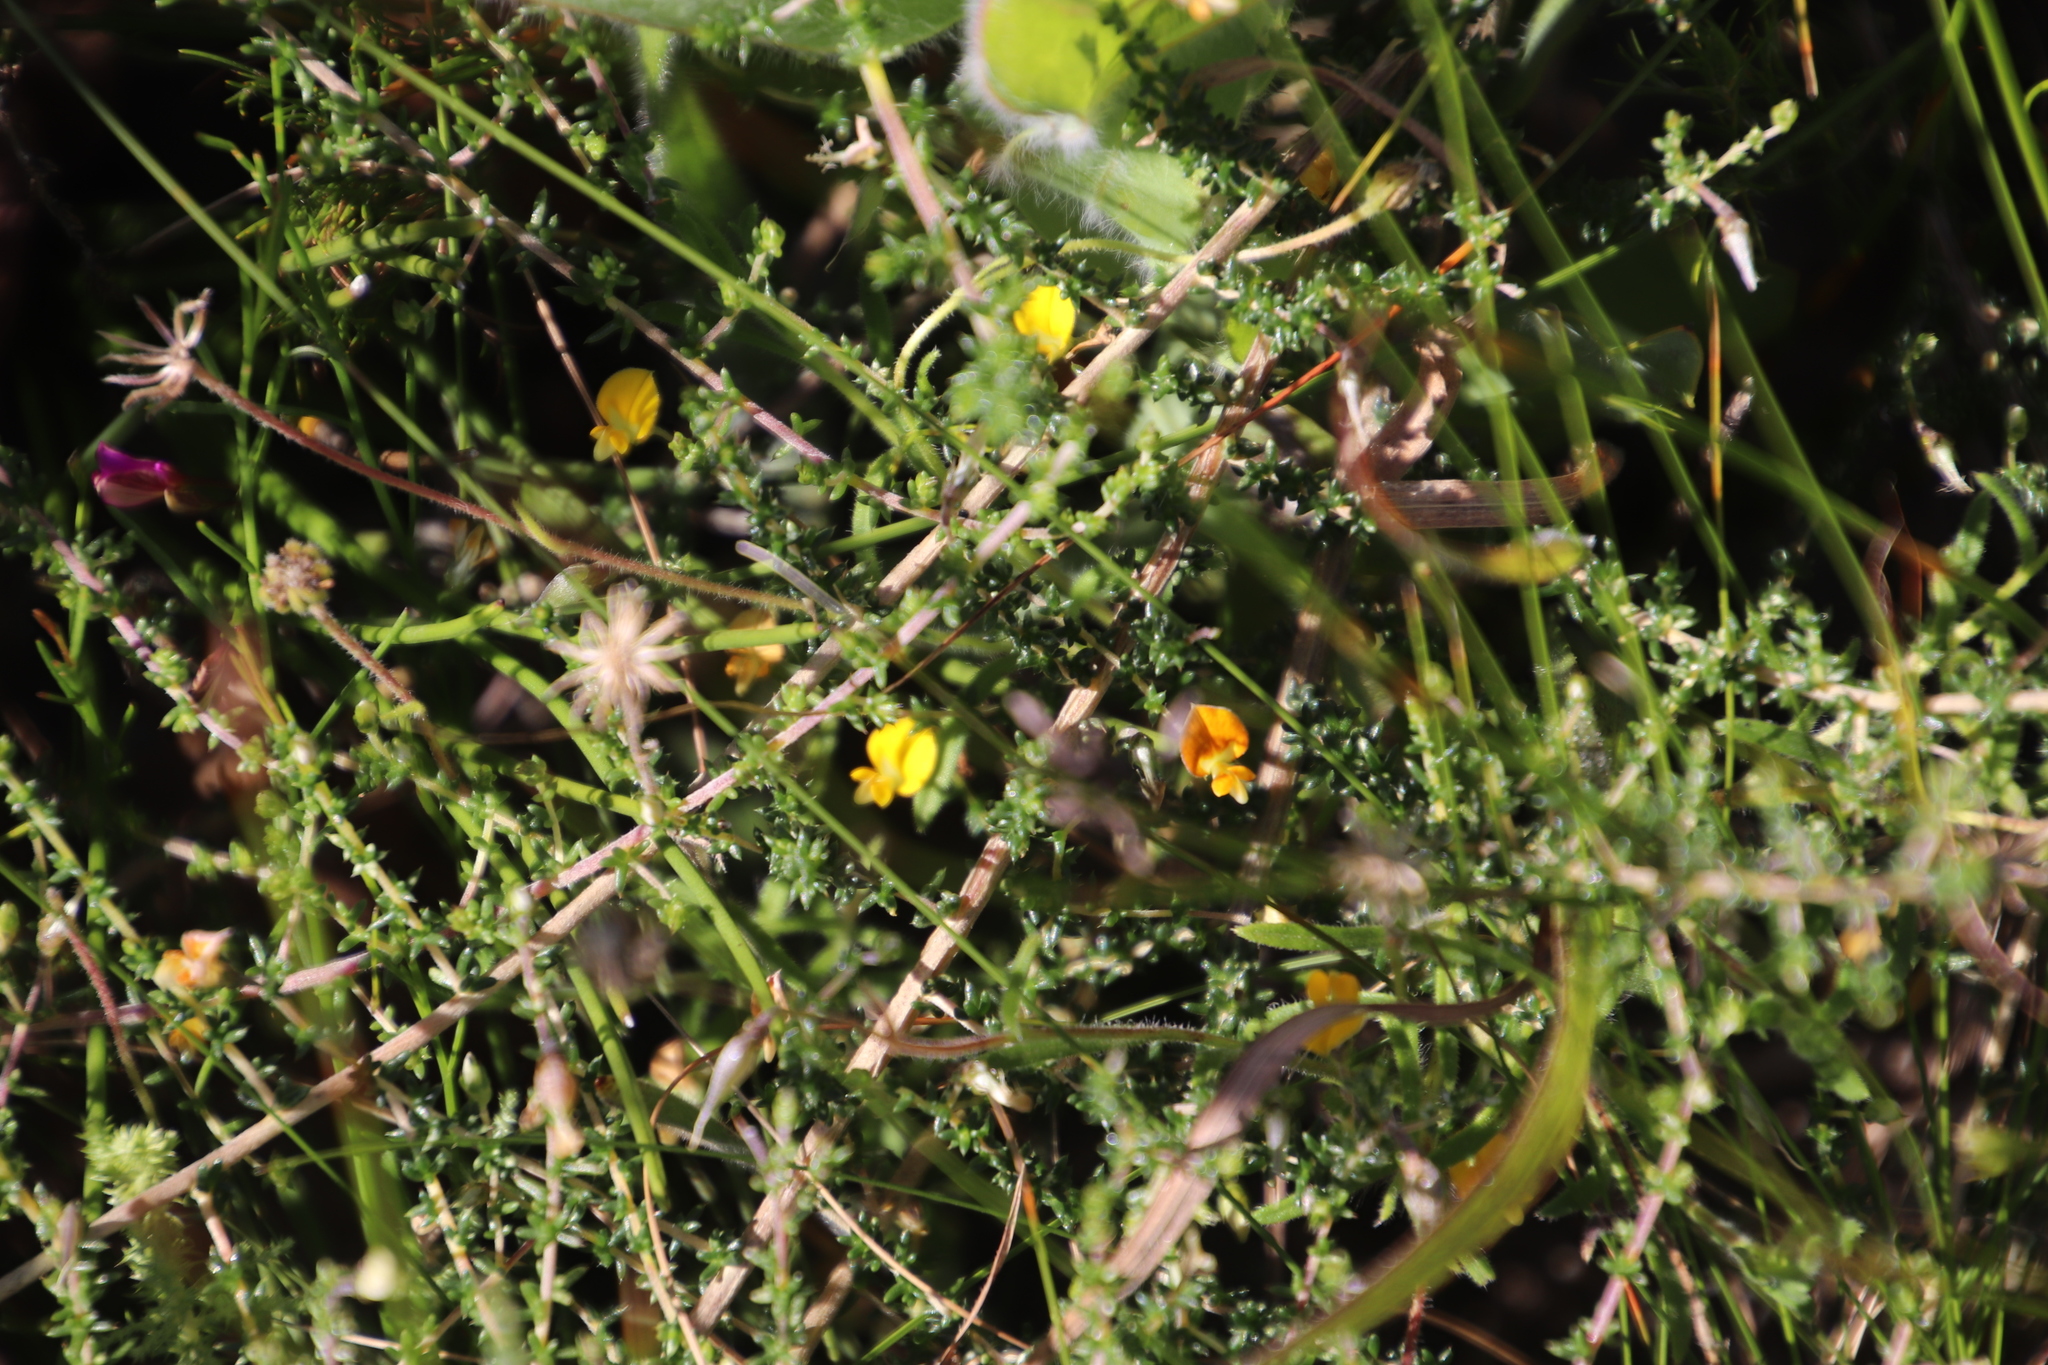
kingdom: Plantae
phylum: Tracheophyta
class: Magnoliopsida
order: Fabales
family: Fabaceae
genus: Aspalathus
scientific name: Aspalathus divaricata
